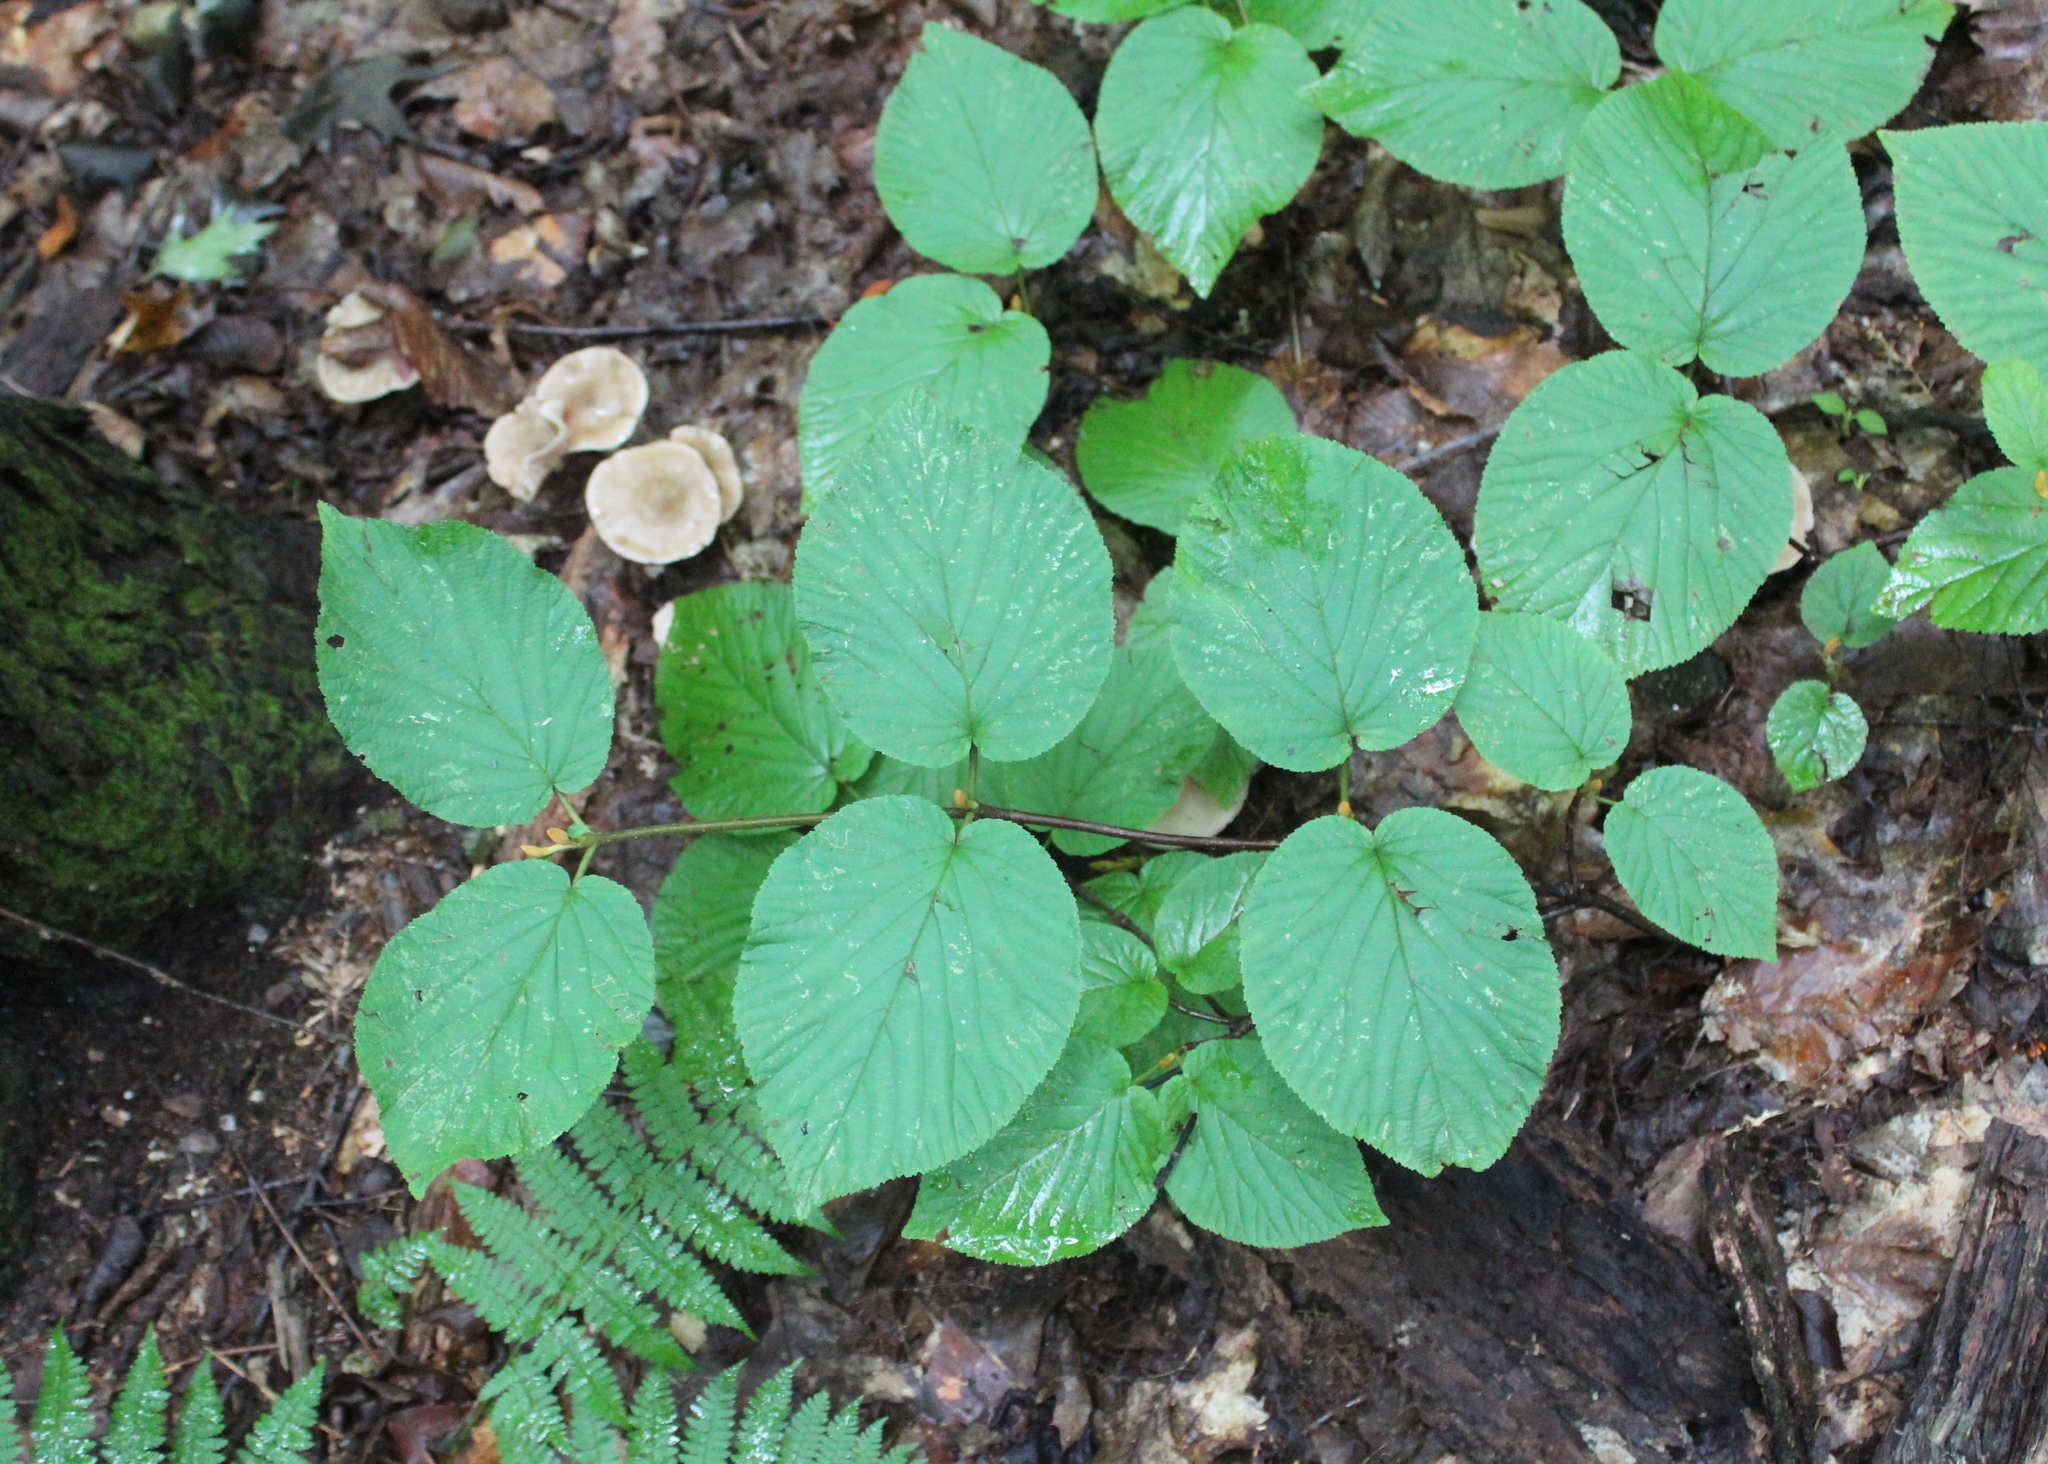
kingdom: Plantae
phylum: Tracheophyta
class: Magnoliopsida
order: Dipsacales
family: Viburnaceae
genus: Viburnum
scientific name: Viburnum lantanoides
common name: Hobblebush
